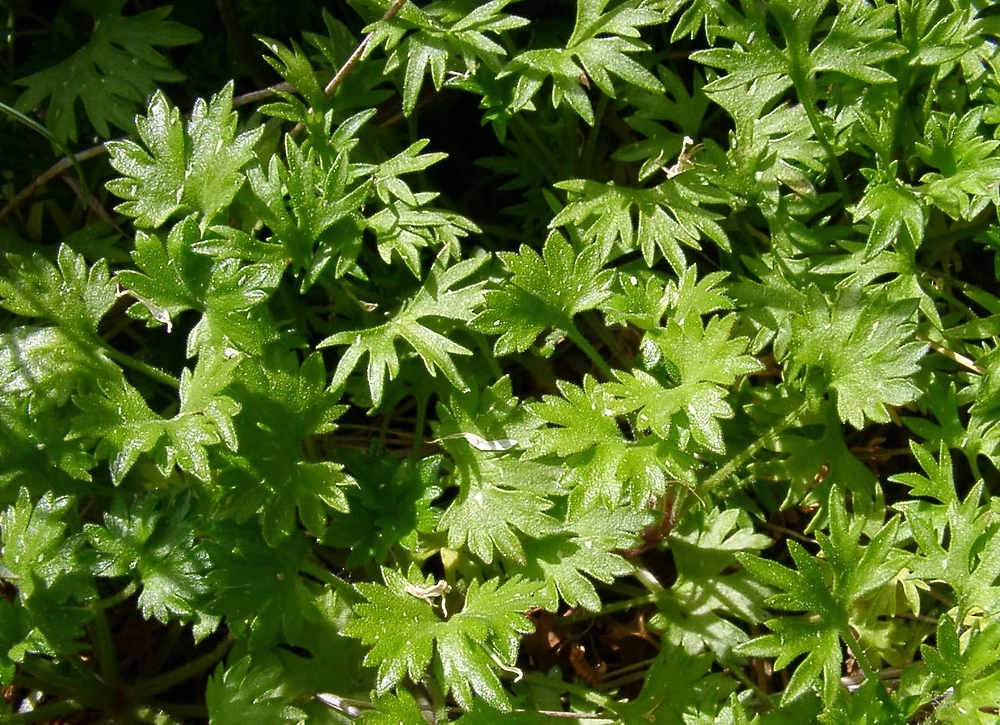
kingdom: Plantae
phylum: Tracheophyta
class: Magnoliopsida
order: Saxifragales
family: Saxifragaceae
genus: Saxifraga
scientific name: Saxifraga geranioides
